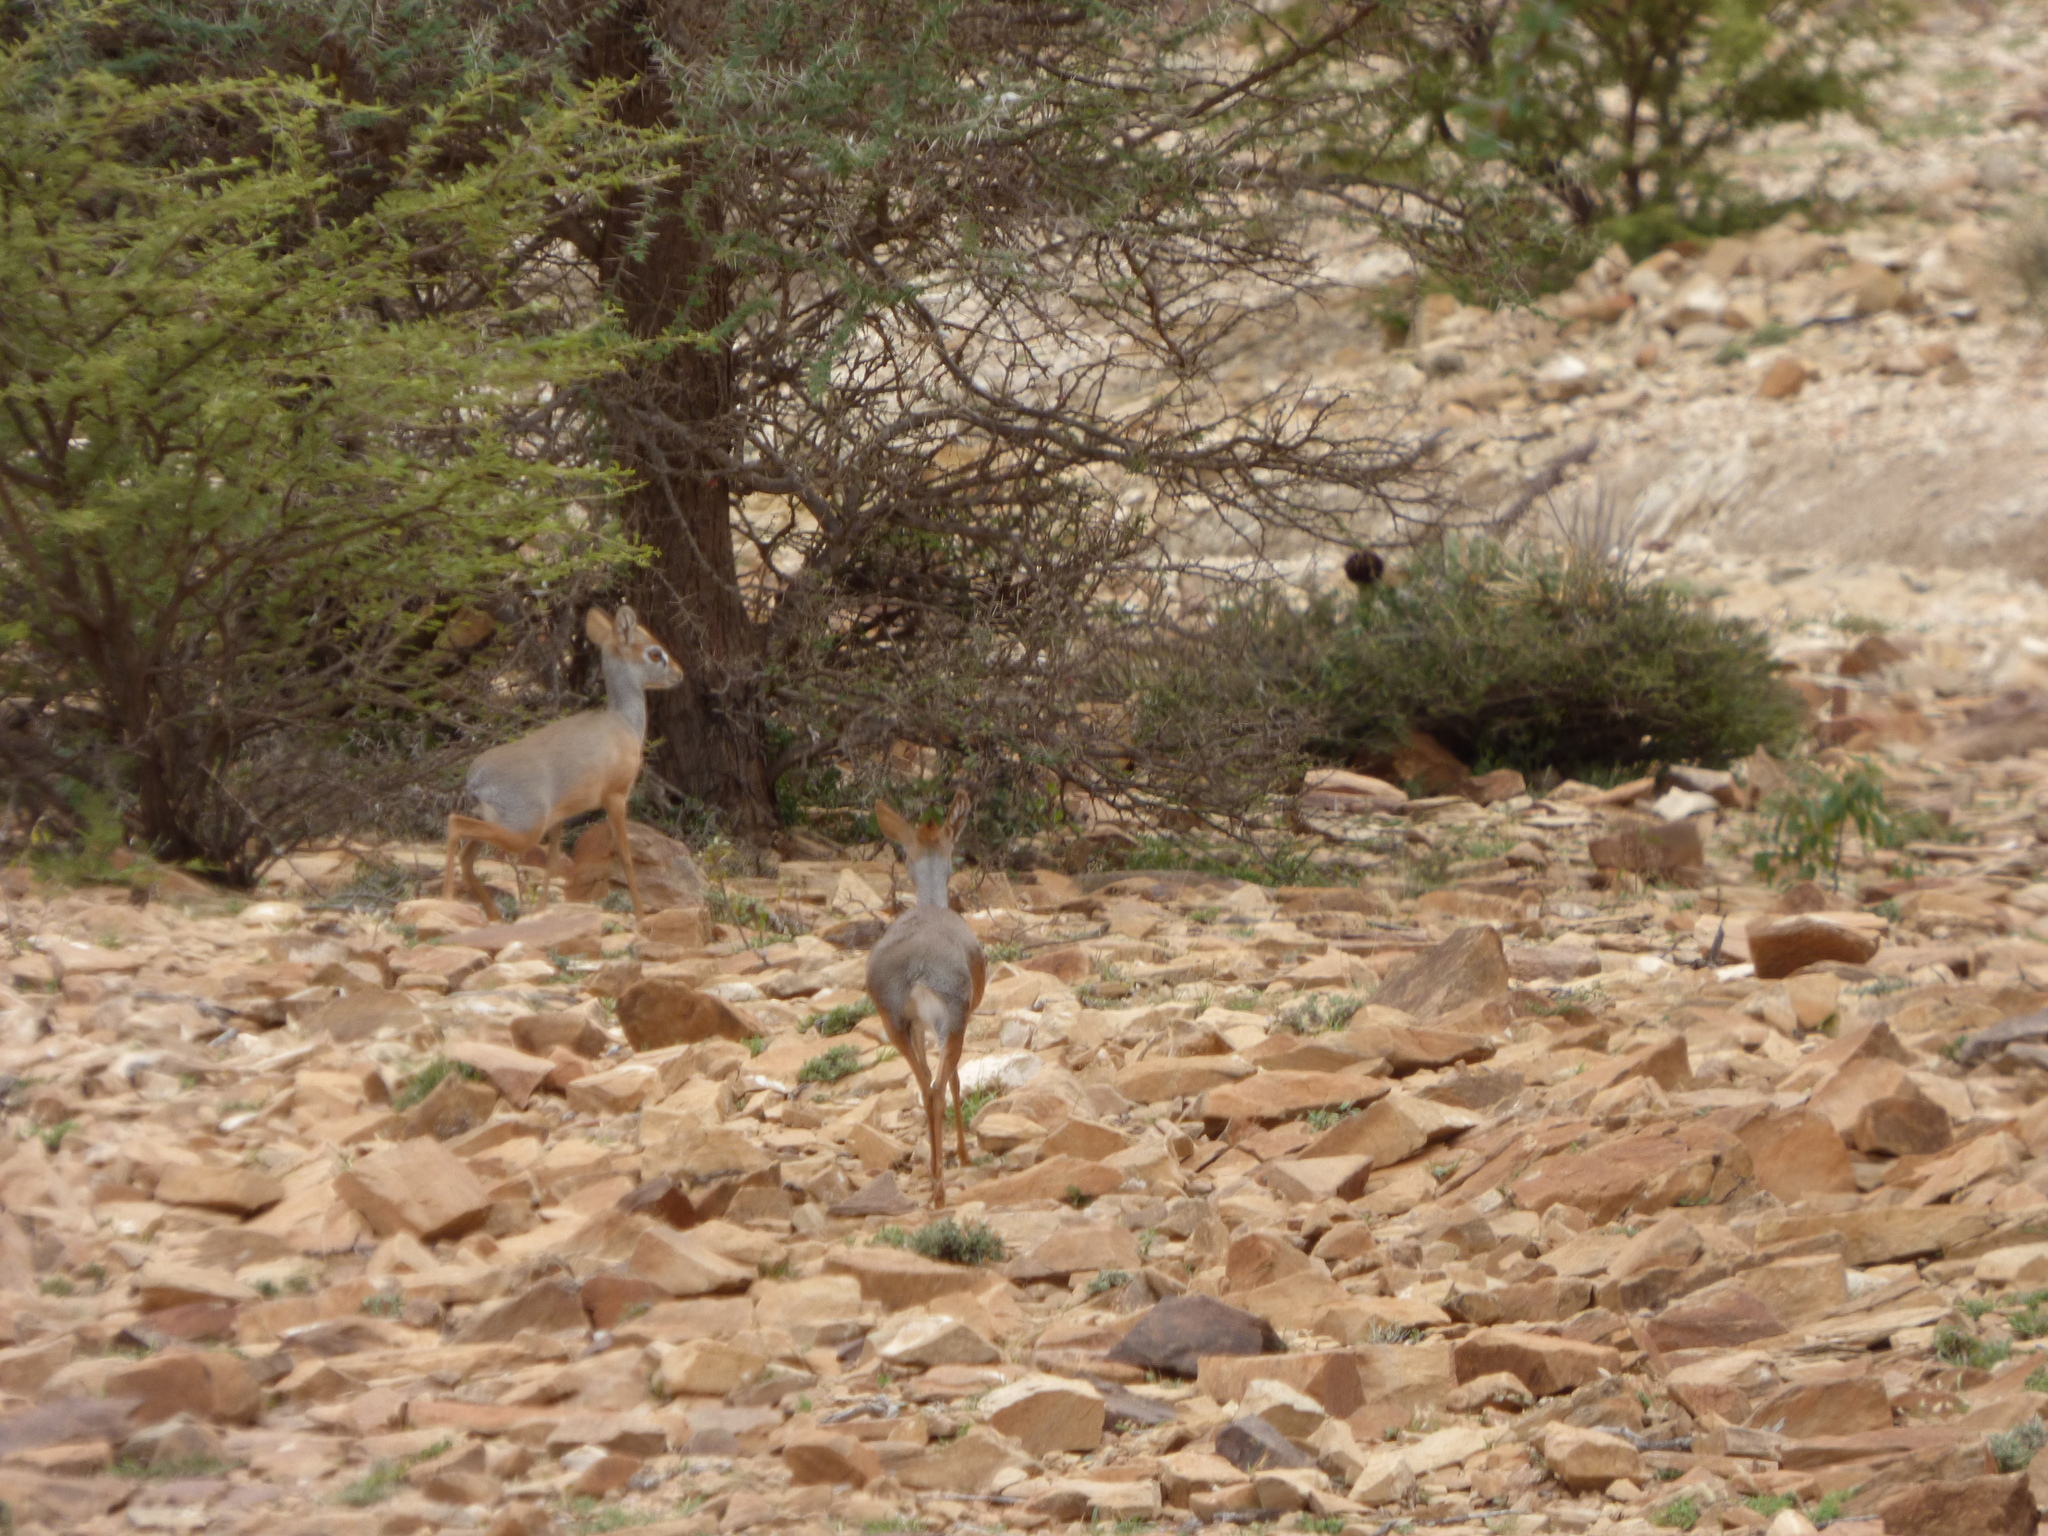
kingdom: Animalia
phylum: Chordata
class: Mammalia
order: Artiodactyla
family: Bovidae
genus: Madoqua
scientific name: Madoqua saltiana
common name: Salt's dikdik
